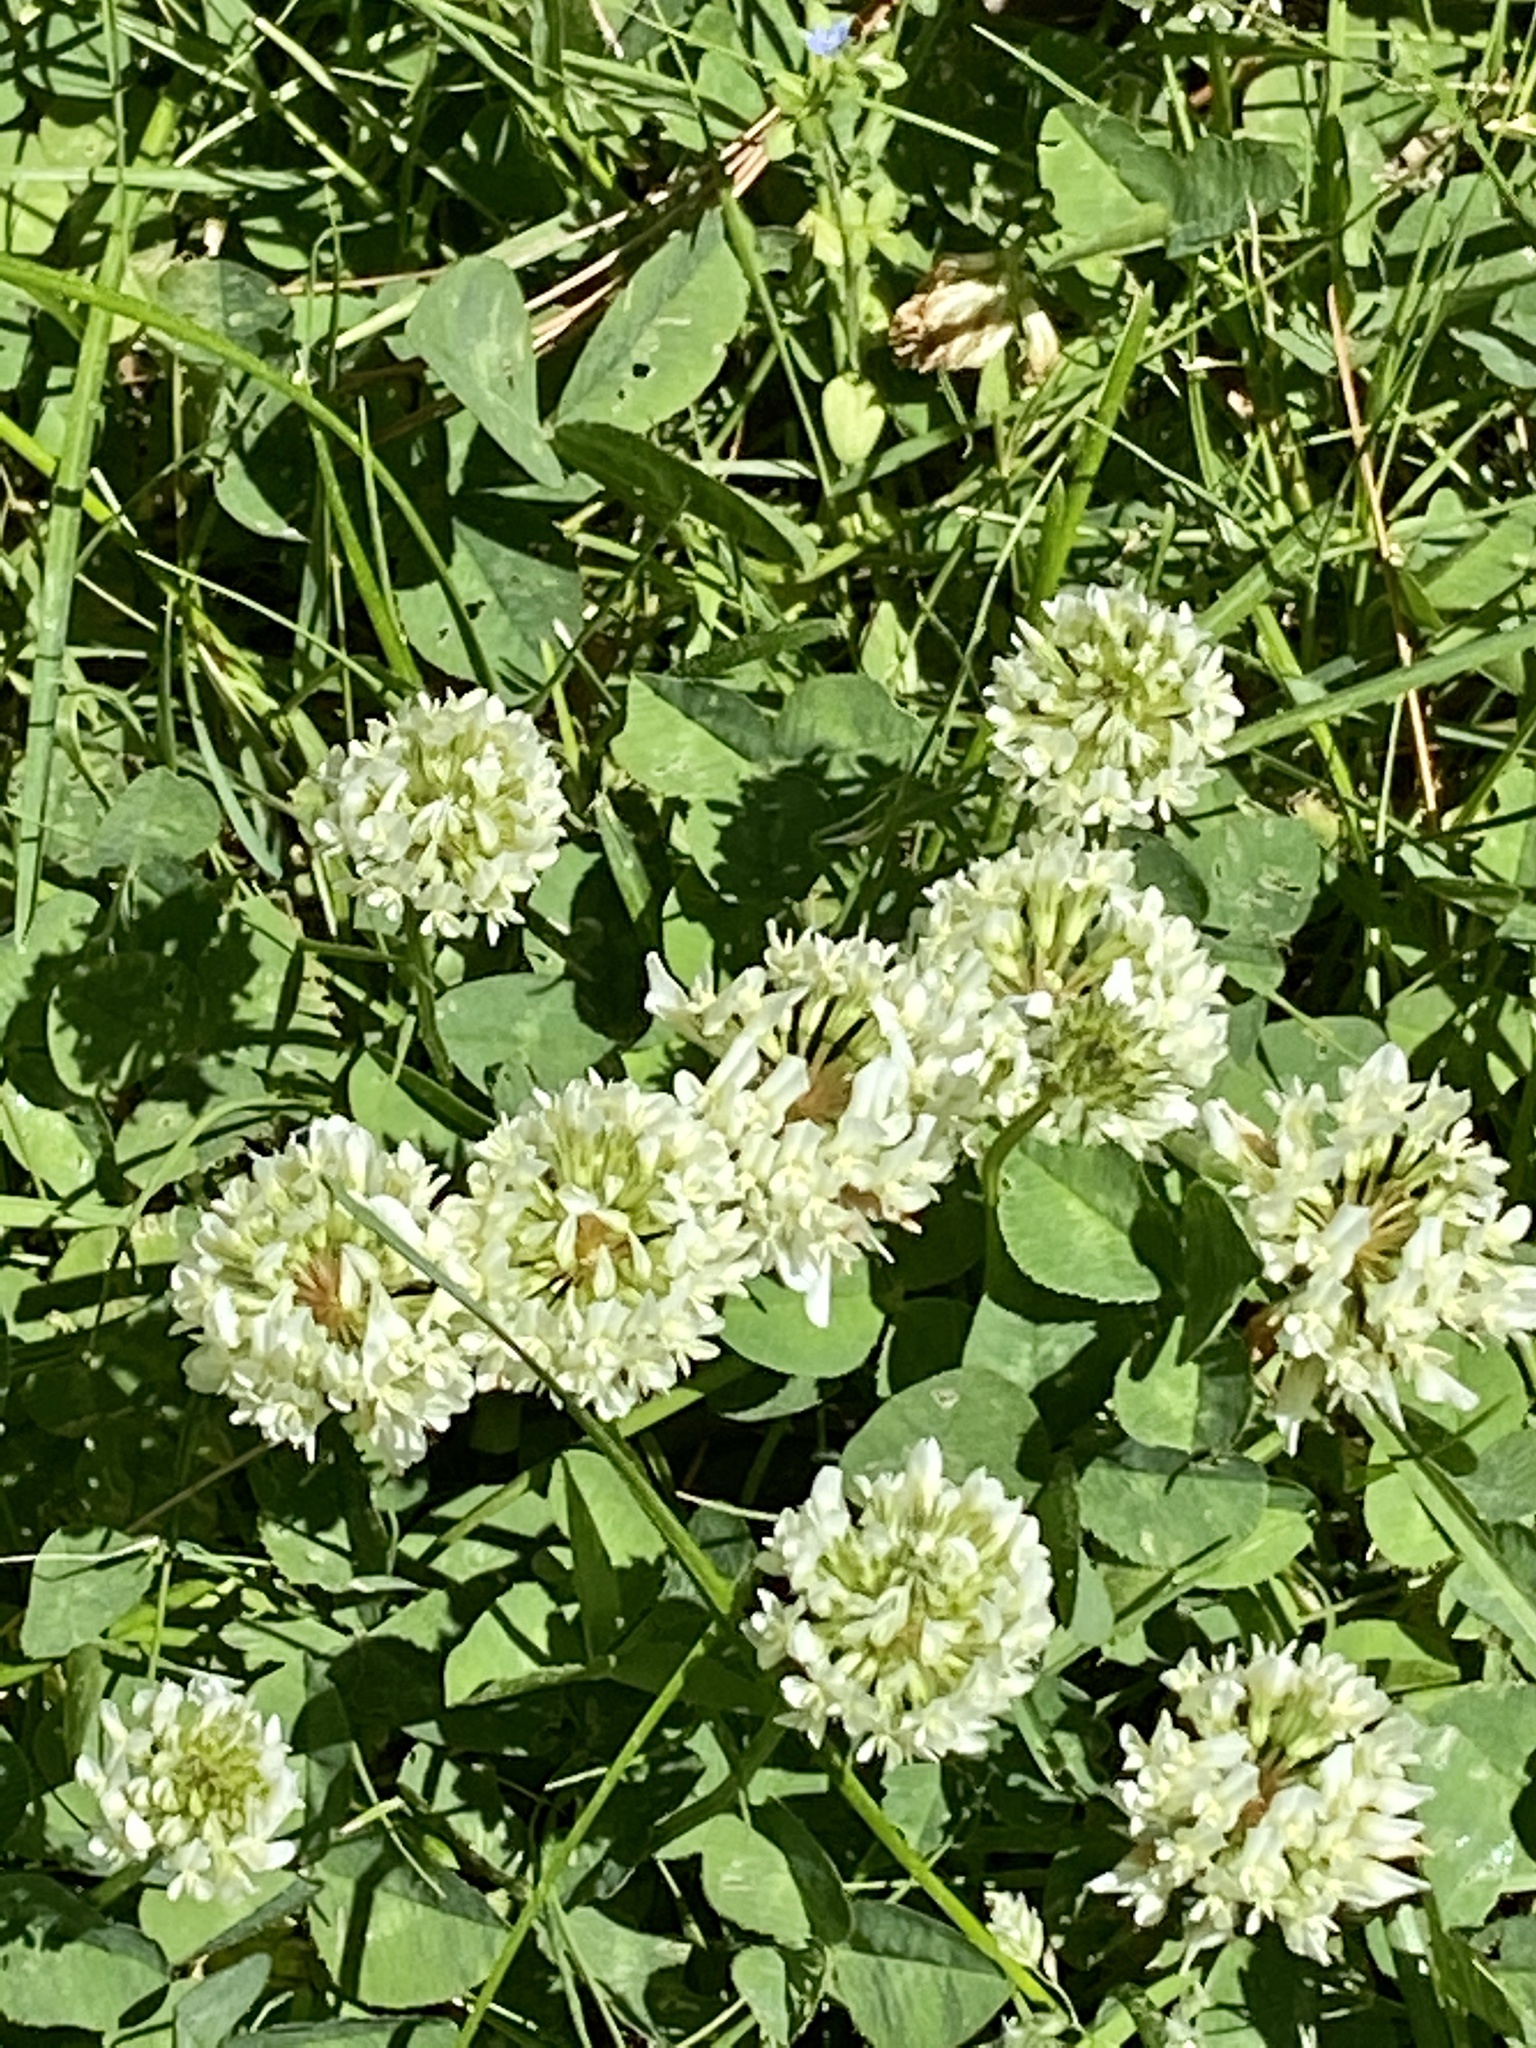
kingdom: Plantae
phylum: Tracheophyta
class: Magnoliopsida
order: Fabales
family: Fabaceae
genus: Trifolium
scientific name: Trifolium repens
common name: White clover
